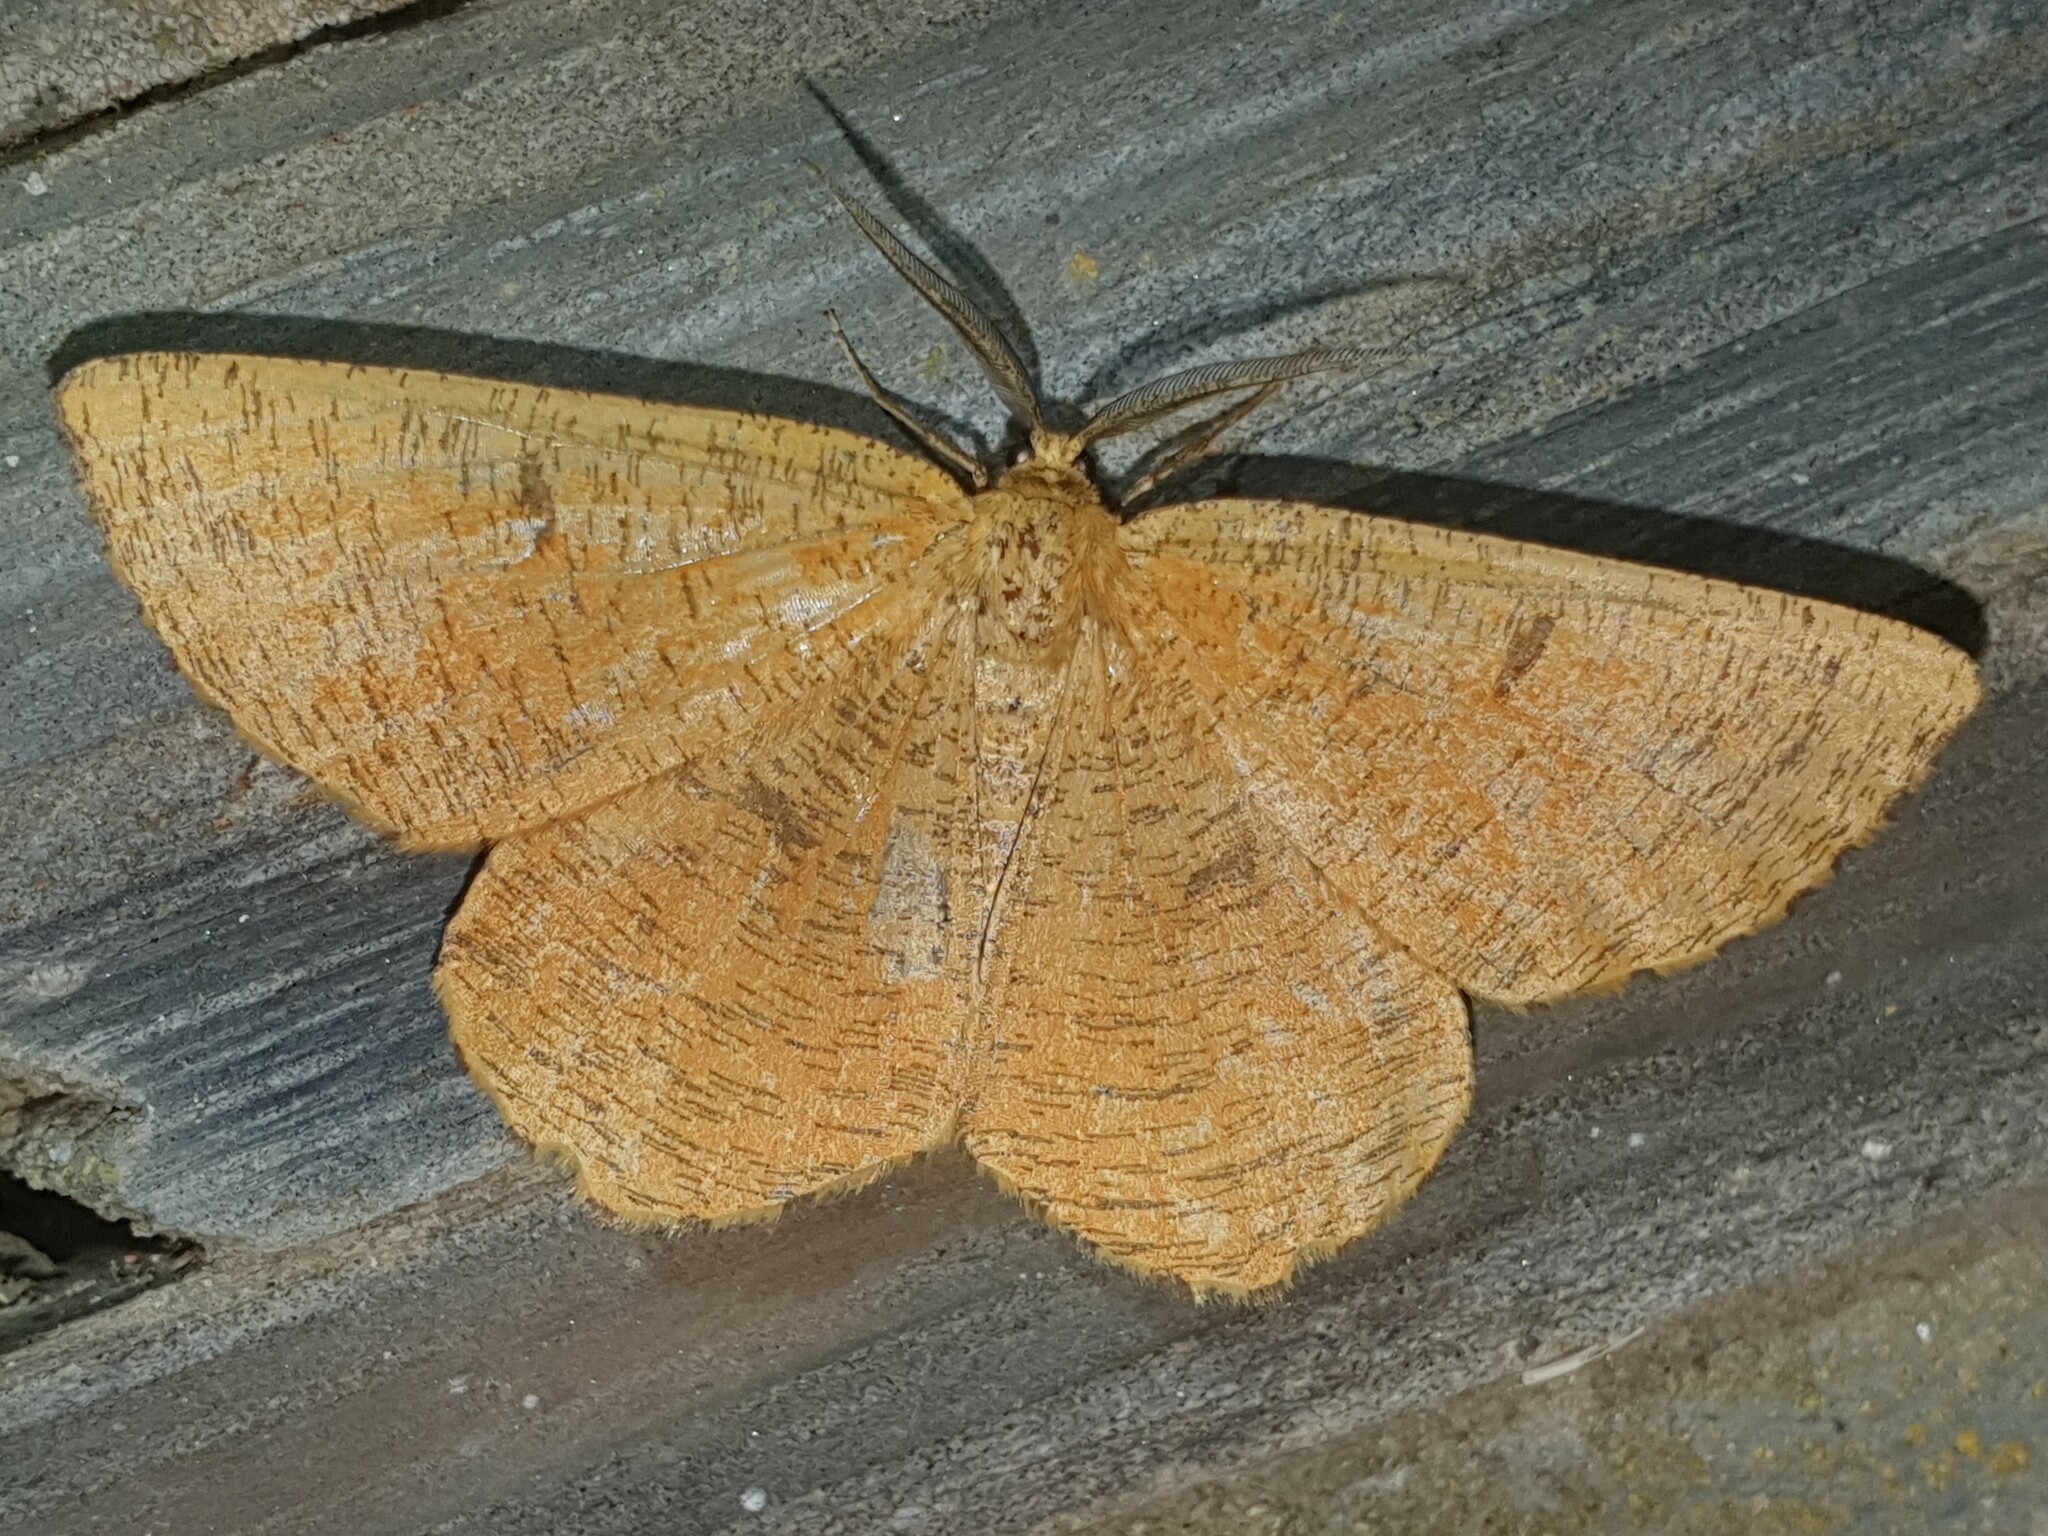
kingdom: Animalia
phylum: Arthropoda
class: Insecta
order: Lepidoptera
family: Geometridae
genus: Angerona
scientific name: Angerona prunaria
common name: Orange moth
